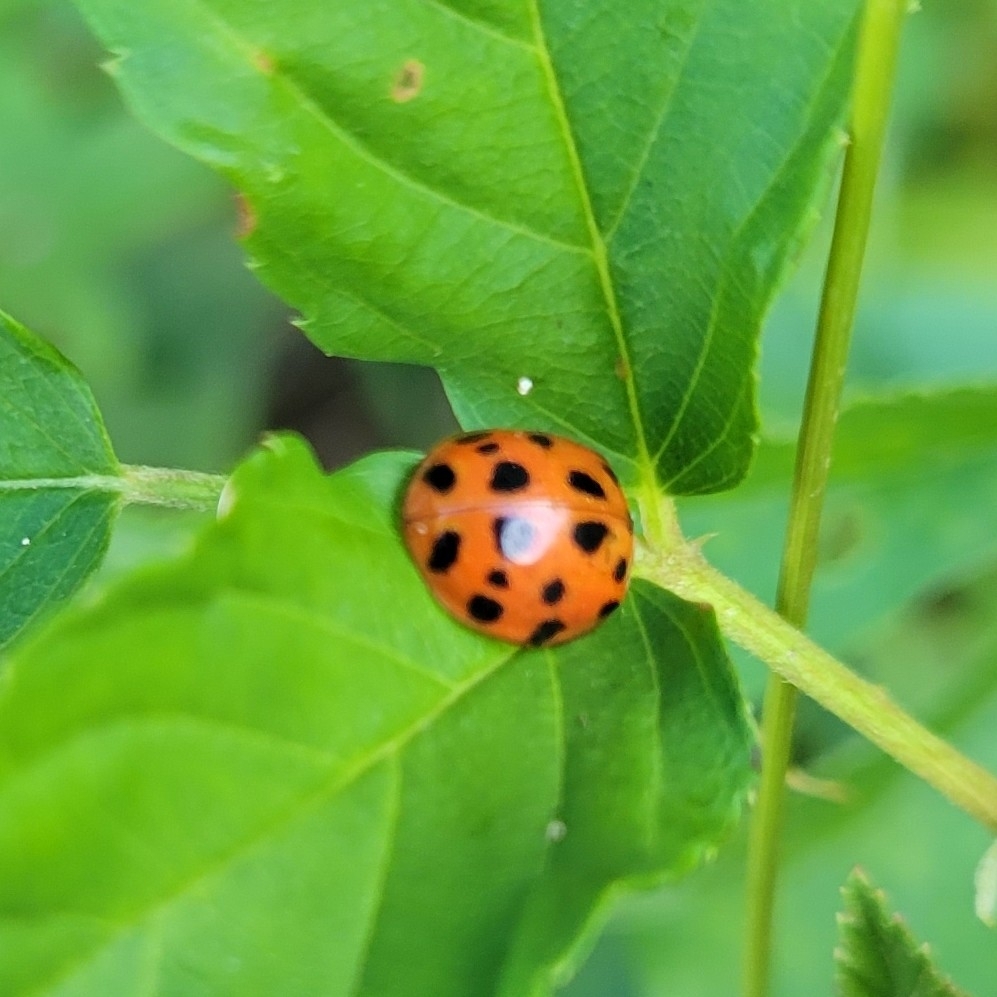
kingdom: Animalia
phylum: Arthropoda
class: Insecta
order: Coleoptera
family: Coccinellidae
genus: Harmonia
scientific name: Harmonia axyridis
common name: Harlequin ladybird
